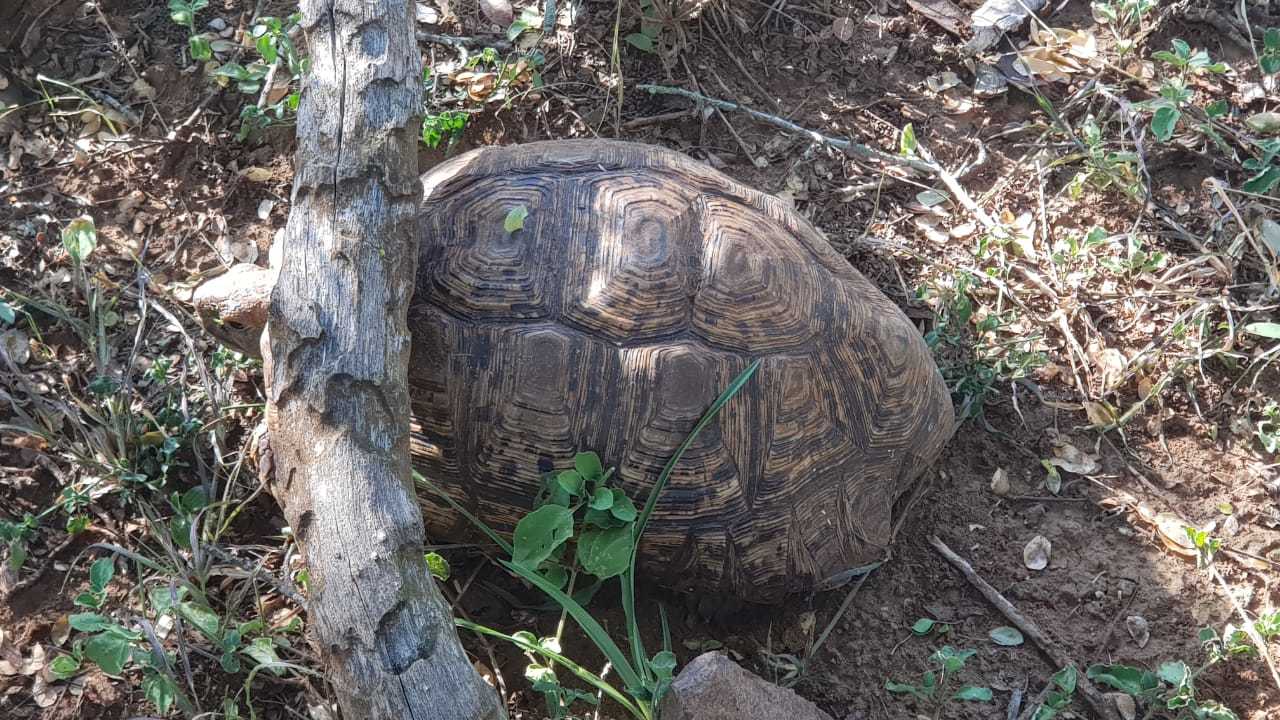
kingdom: Animalia
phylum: Chordata
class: Testudines
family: Testudinidae
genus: Stigmochelys
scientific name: Stigmochelys pardalis
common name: Leopard tortoise
